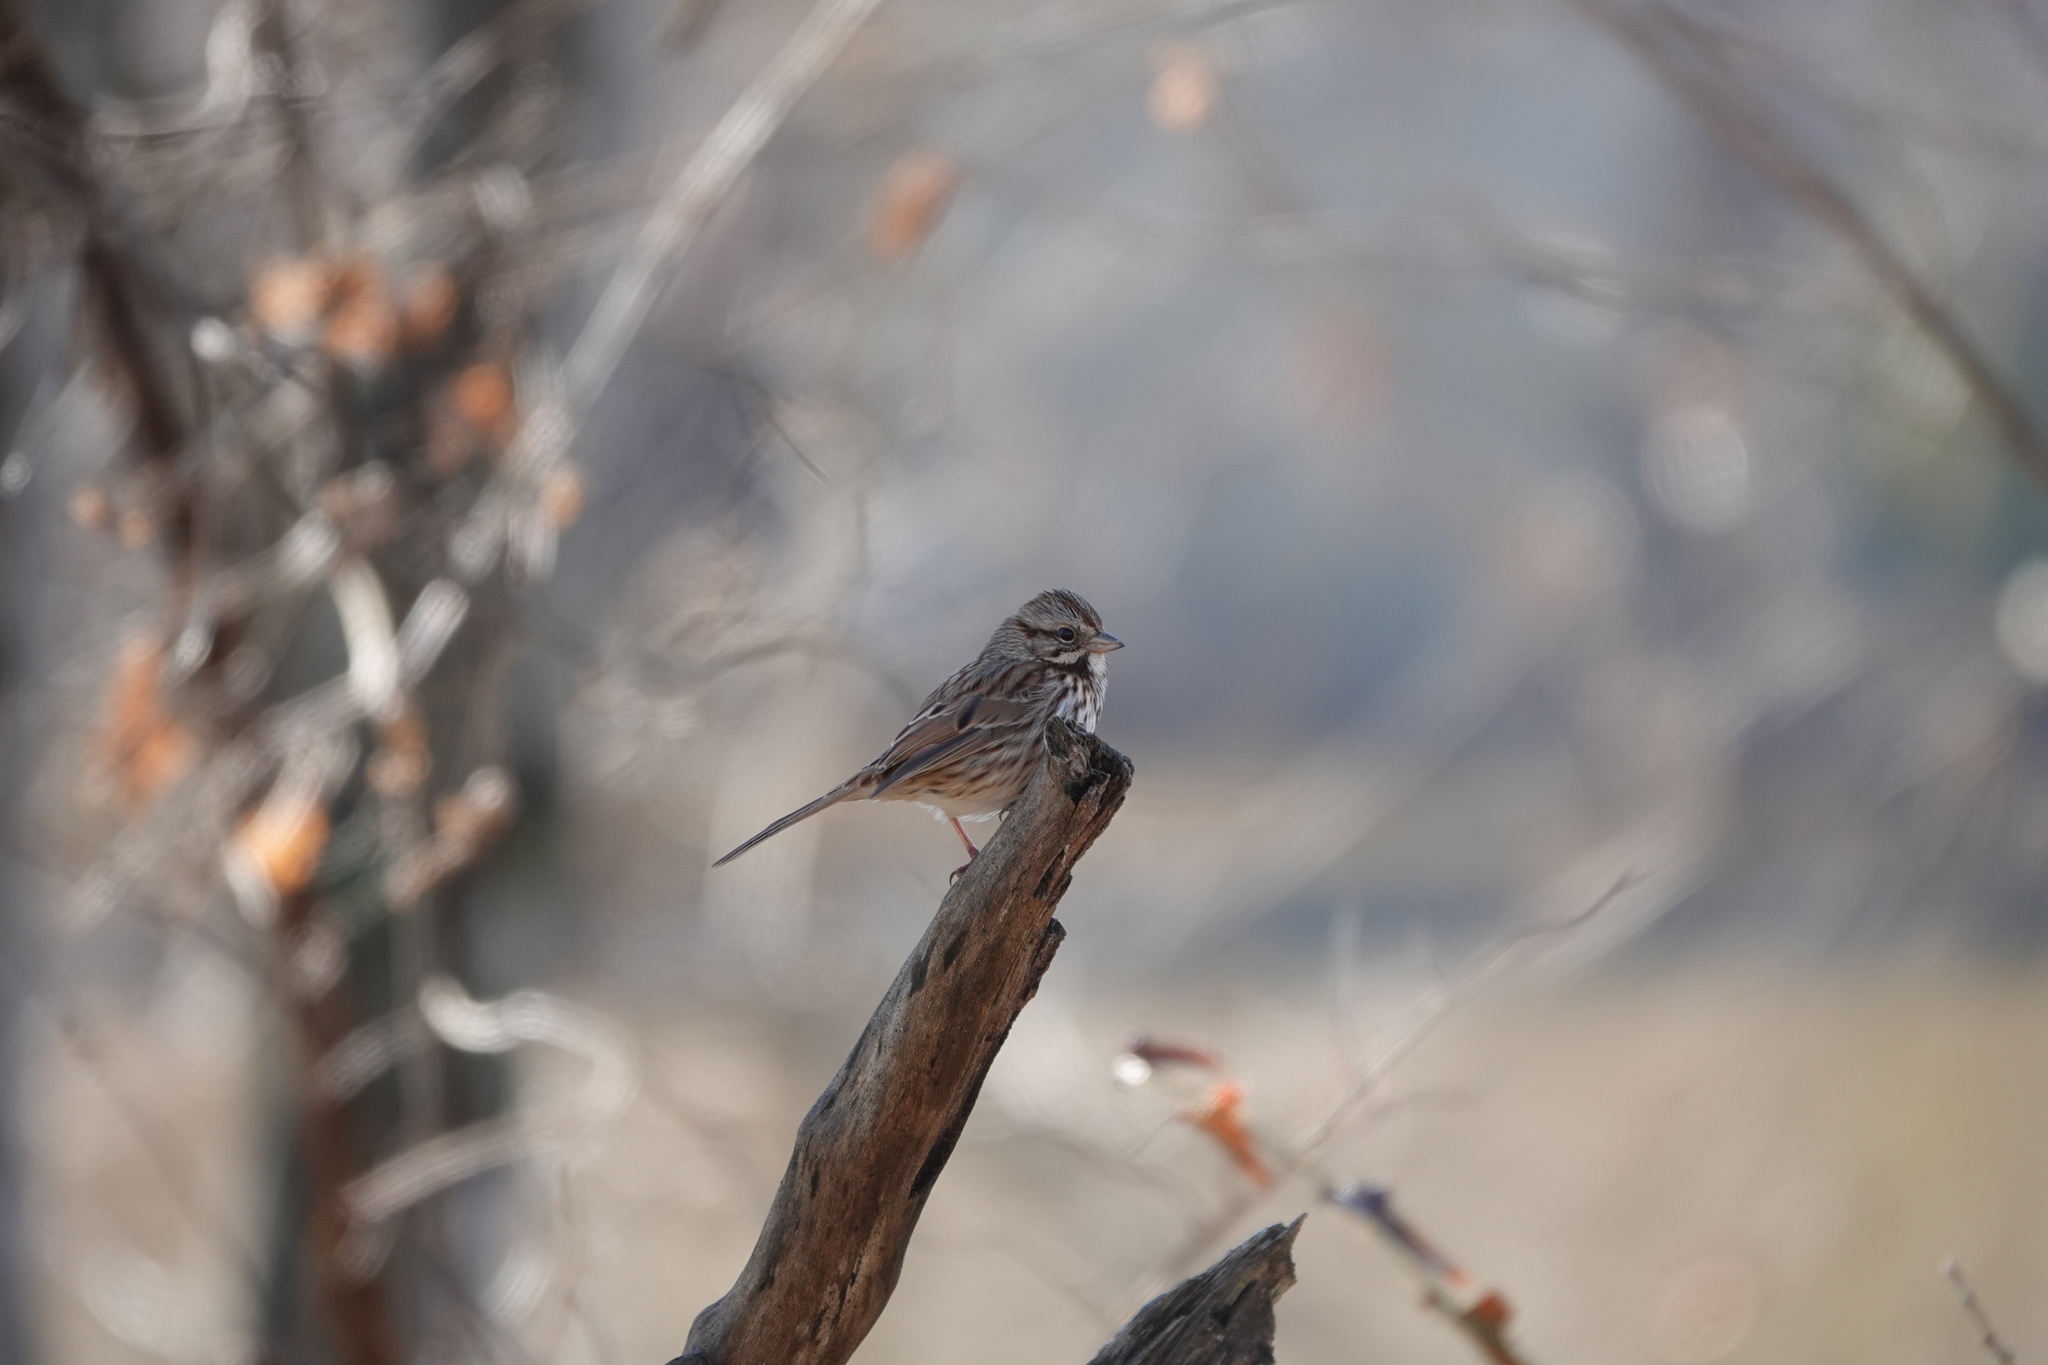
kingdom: Animalia
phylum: Chordata
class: Aves
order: Passeriformes
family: Passerellidae
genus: Melospiza
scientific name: Melospiza melodia
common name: Song sparrow
